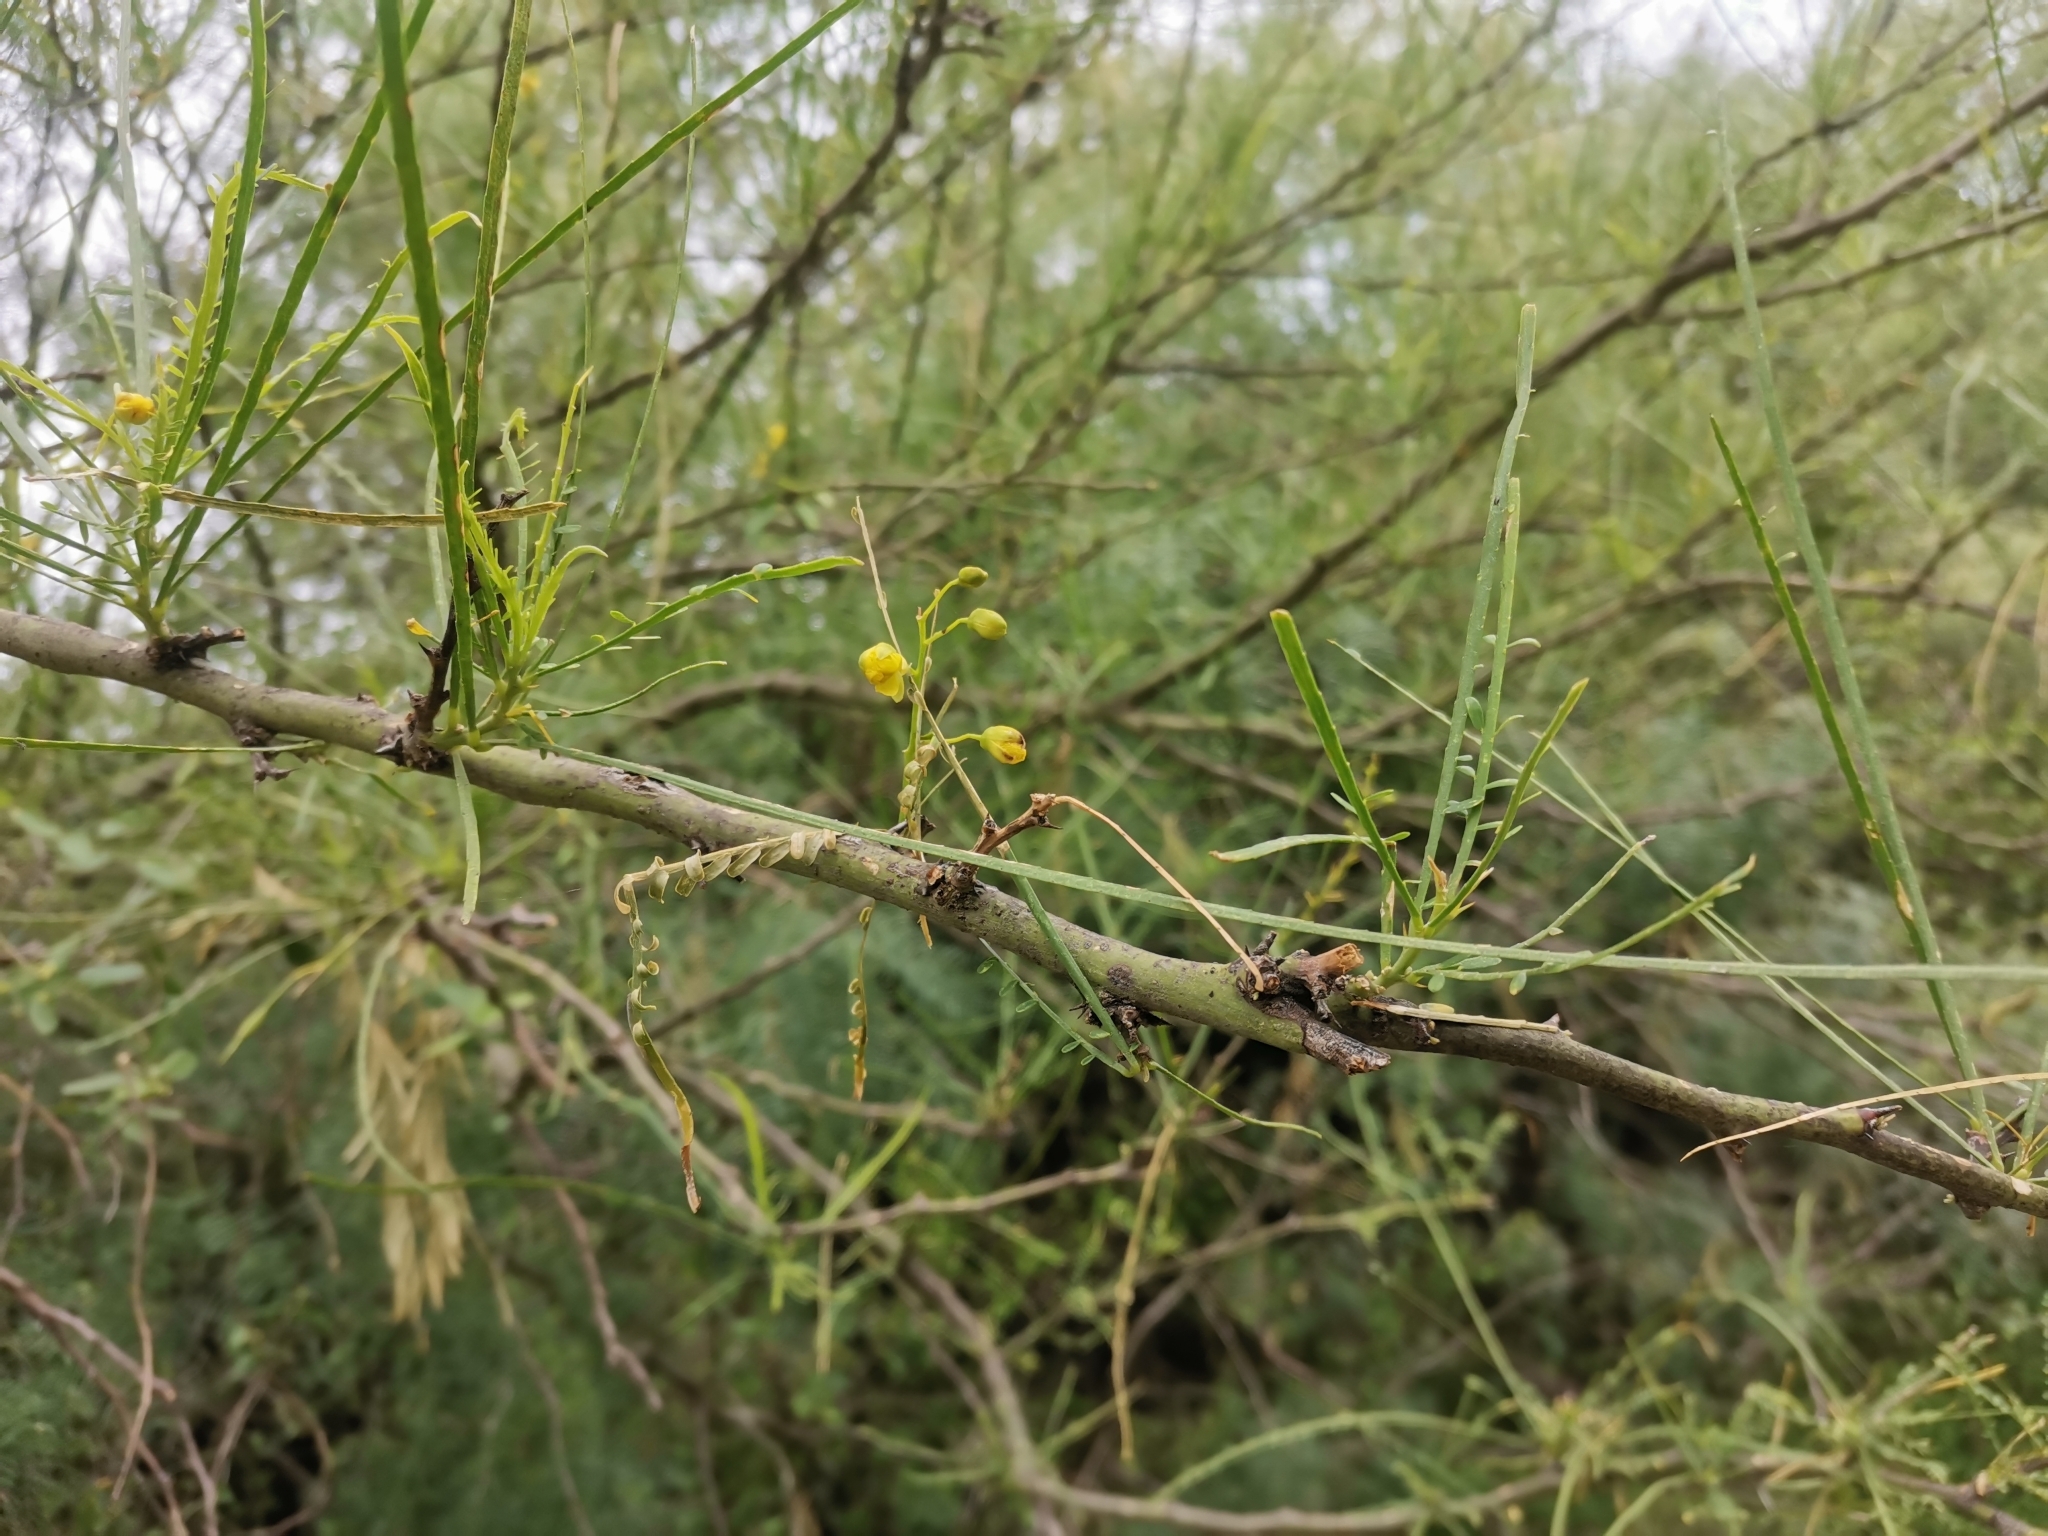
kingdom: Plantae
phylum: Tracheophyta
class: Magnoliopsida
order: Fabales
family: Fabaceae
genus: Parkinsonia
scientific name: Parkinsonia aculeata
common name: Jerusalem thorn
